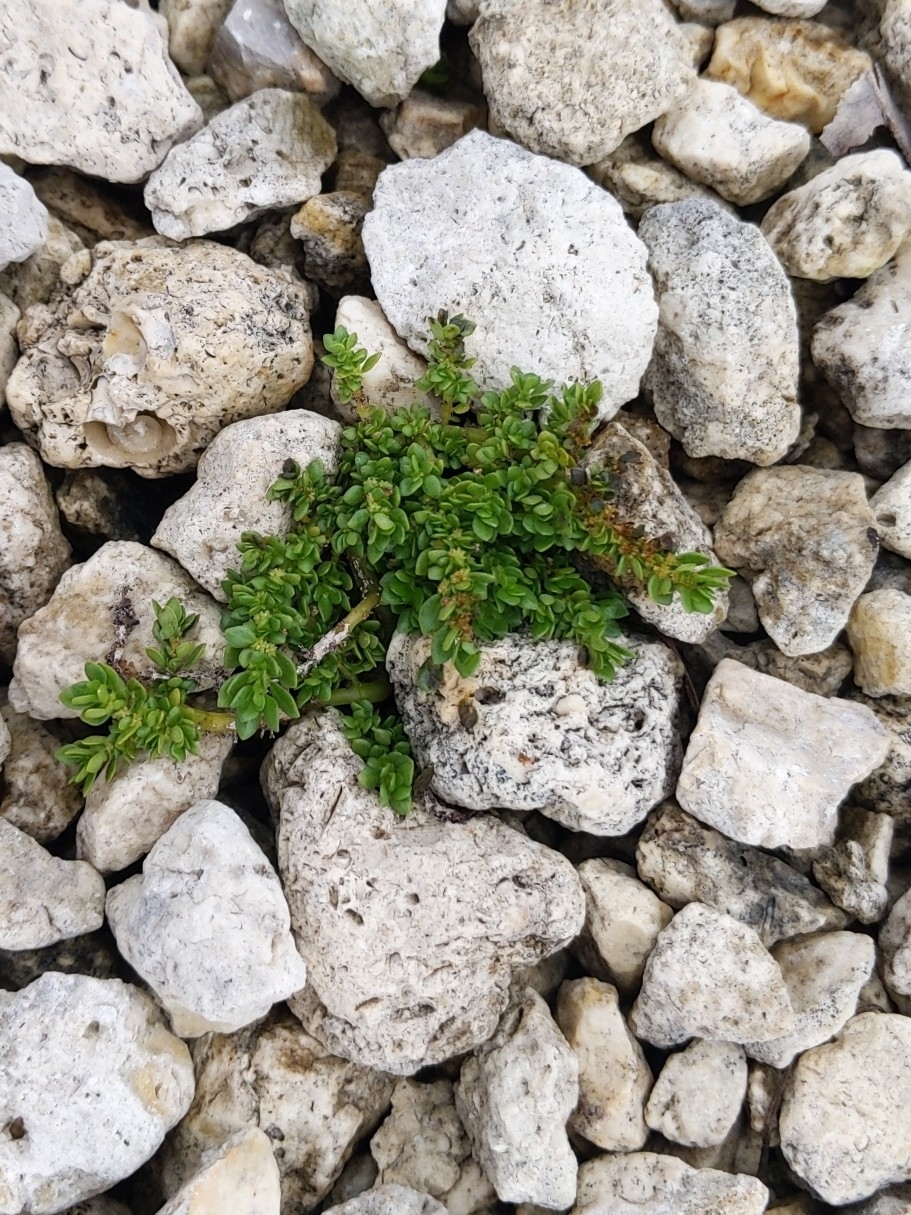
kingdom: Plantae
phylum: Tracheophyta
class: Magnoliopsida
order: Rosales
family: Urticaceae
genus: Pilea
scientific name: Pilea microphylla
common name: Artillery-plant
